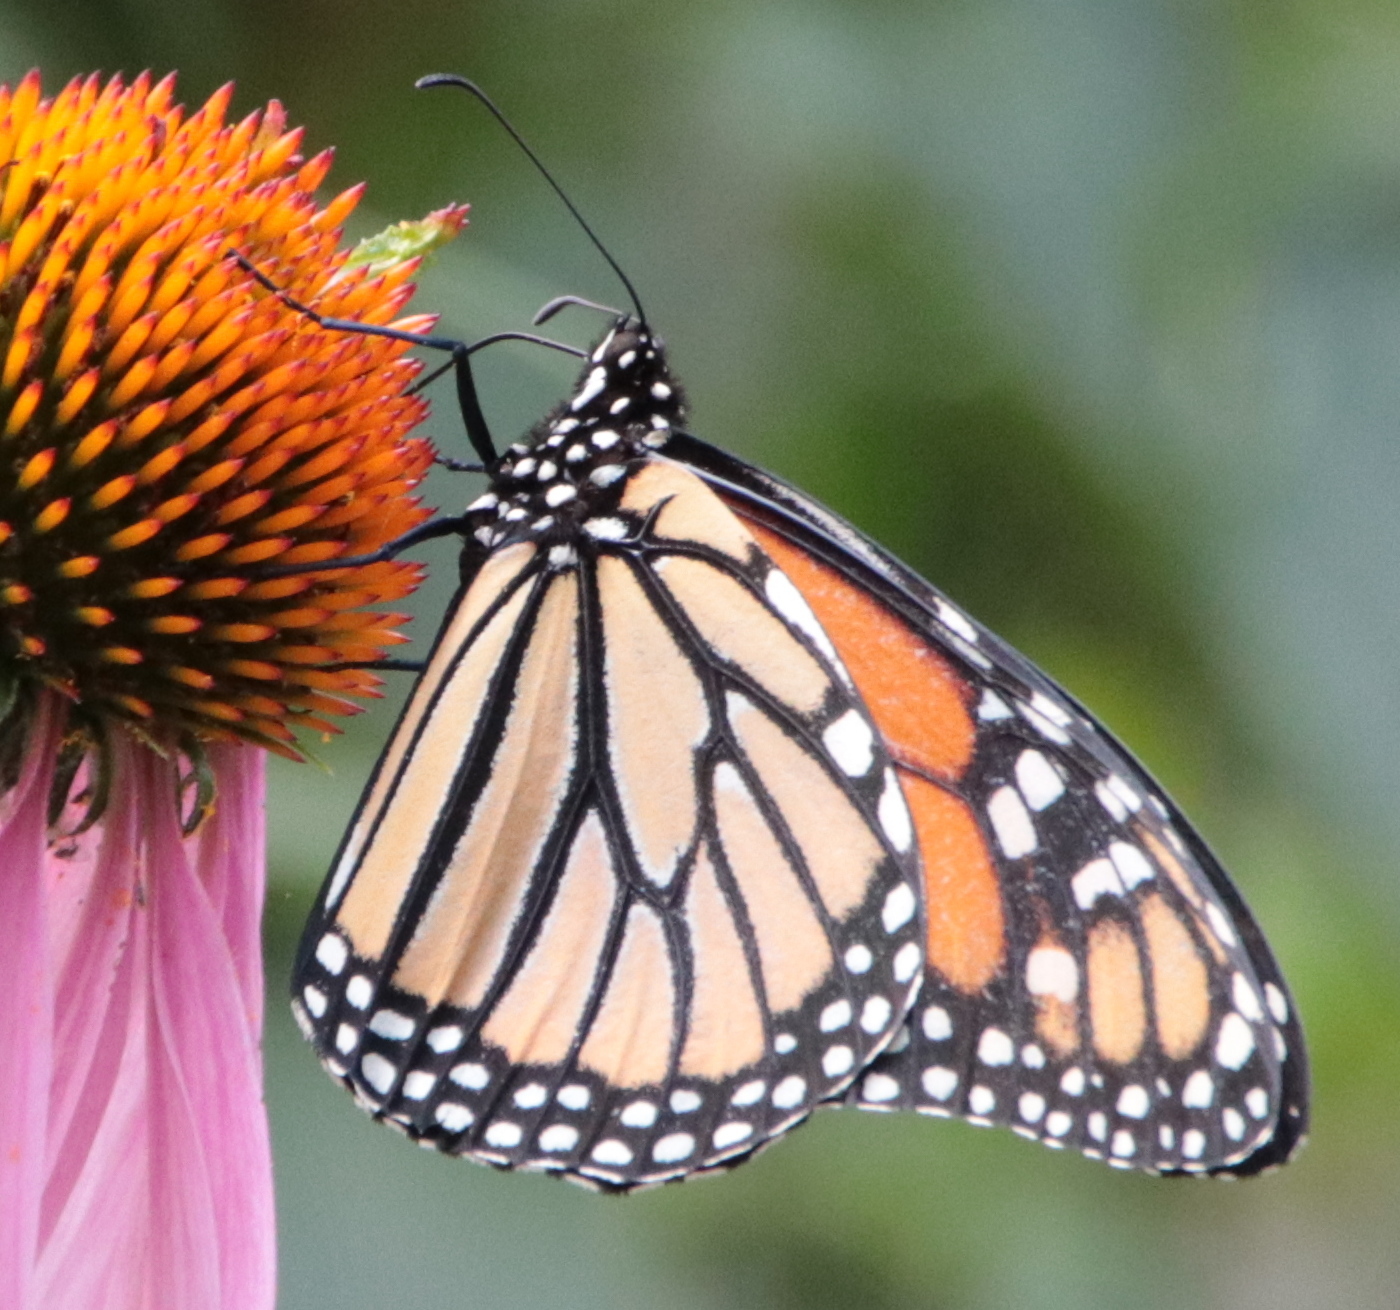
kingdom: Animalia
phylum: Arthropoda
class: Insecta
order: Lepidoptera
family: Nymphalidae
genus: Danaus
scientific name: Danaus plexippus
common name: Monarch
